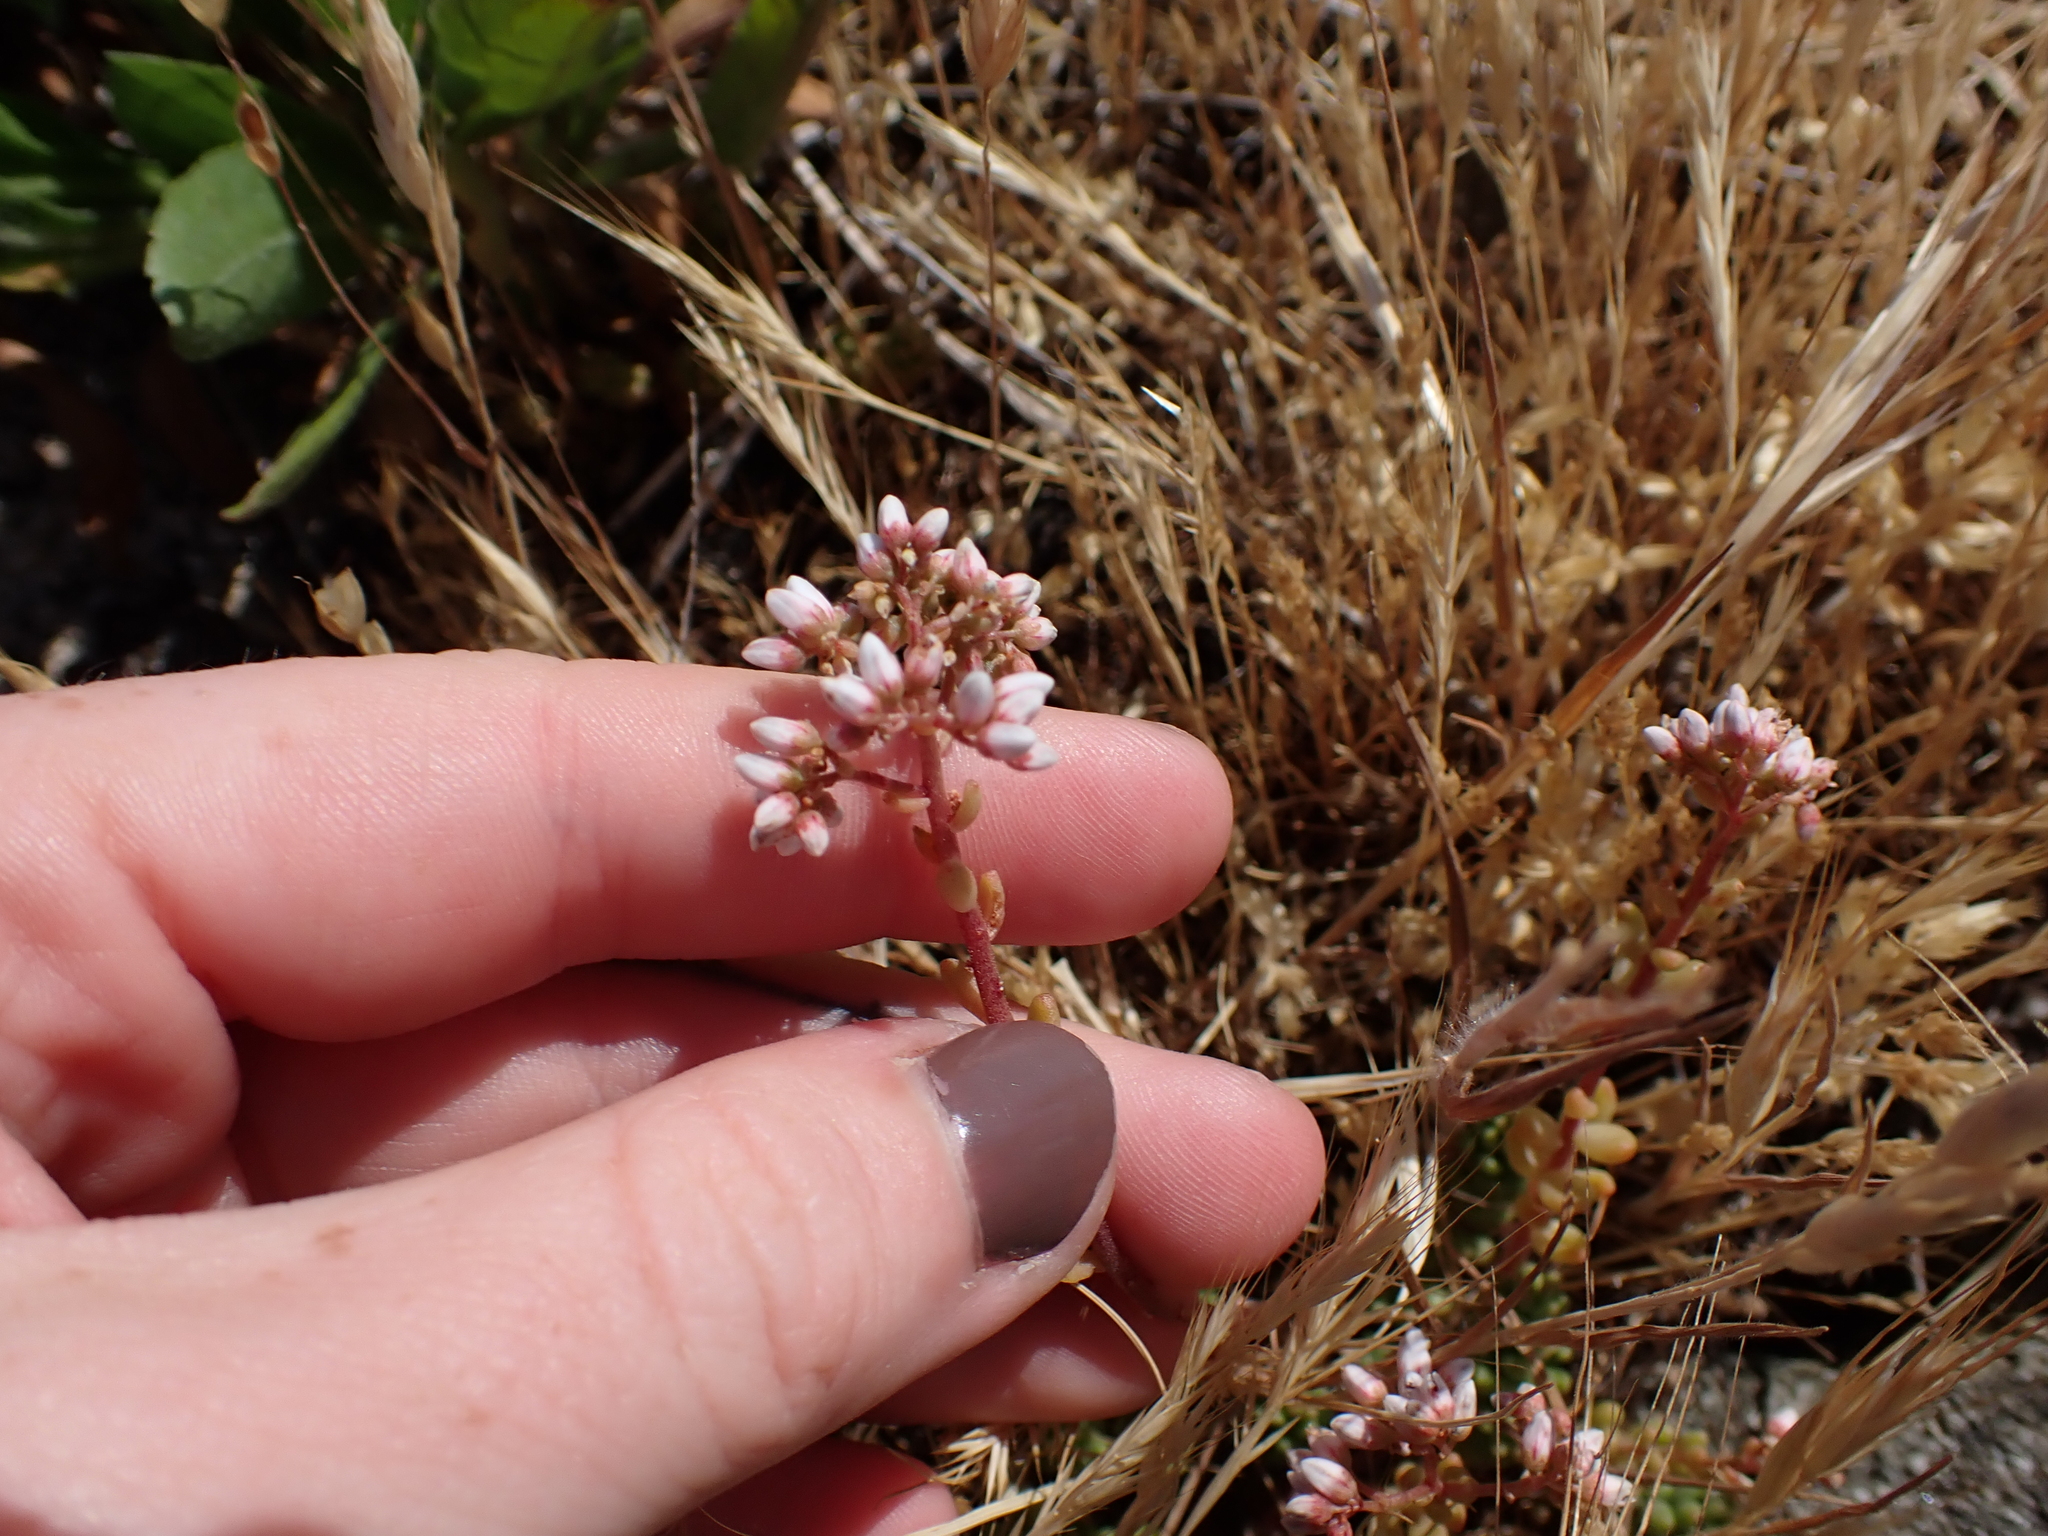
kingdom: Plantae
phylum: Tracheophyta
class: Magnoliopsida
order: Saxifragales
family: Crassulaceae
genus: Sedum
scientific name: Sedum album
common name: White stonecrop
